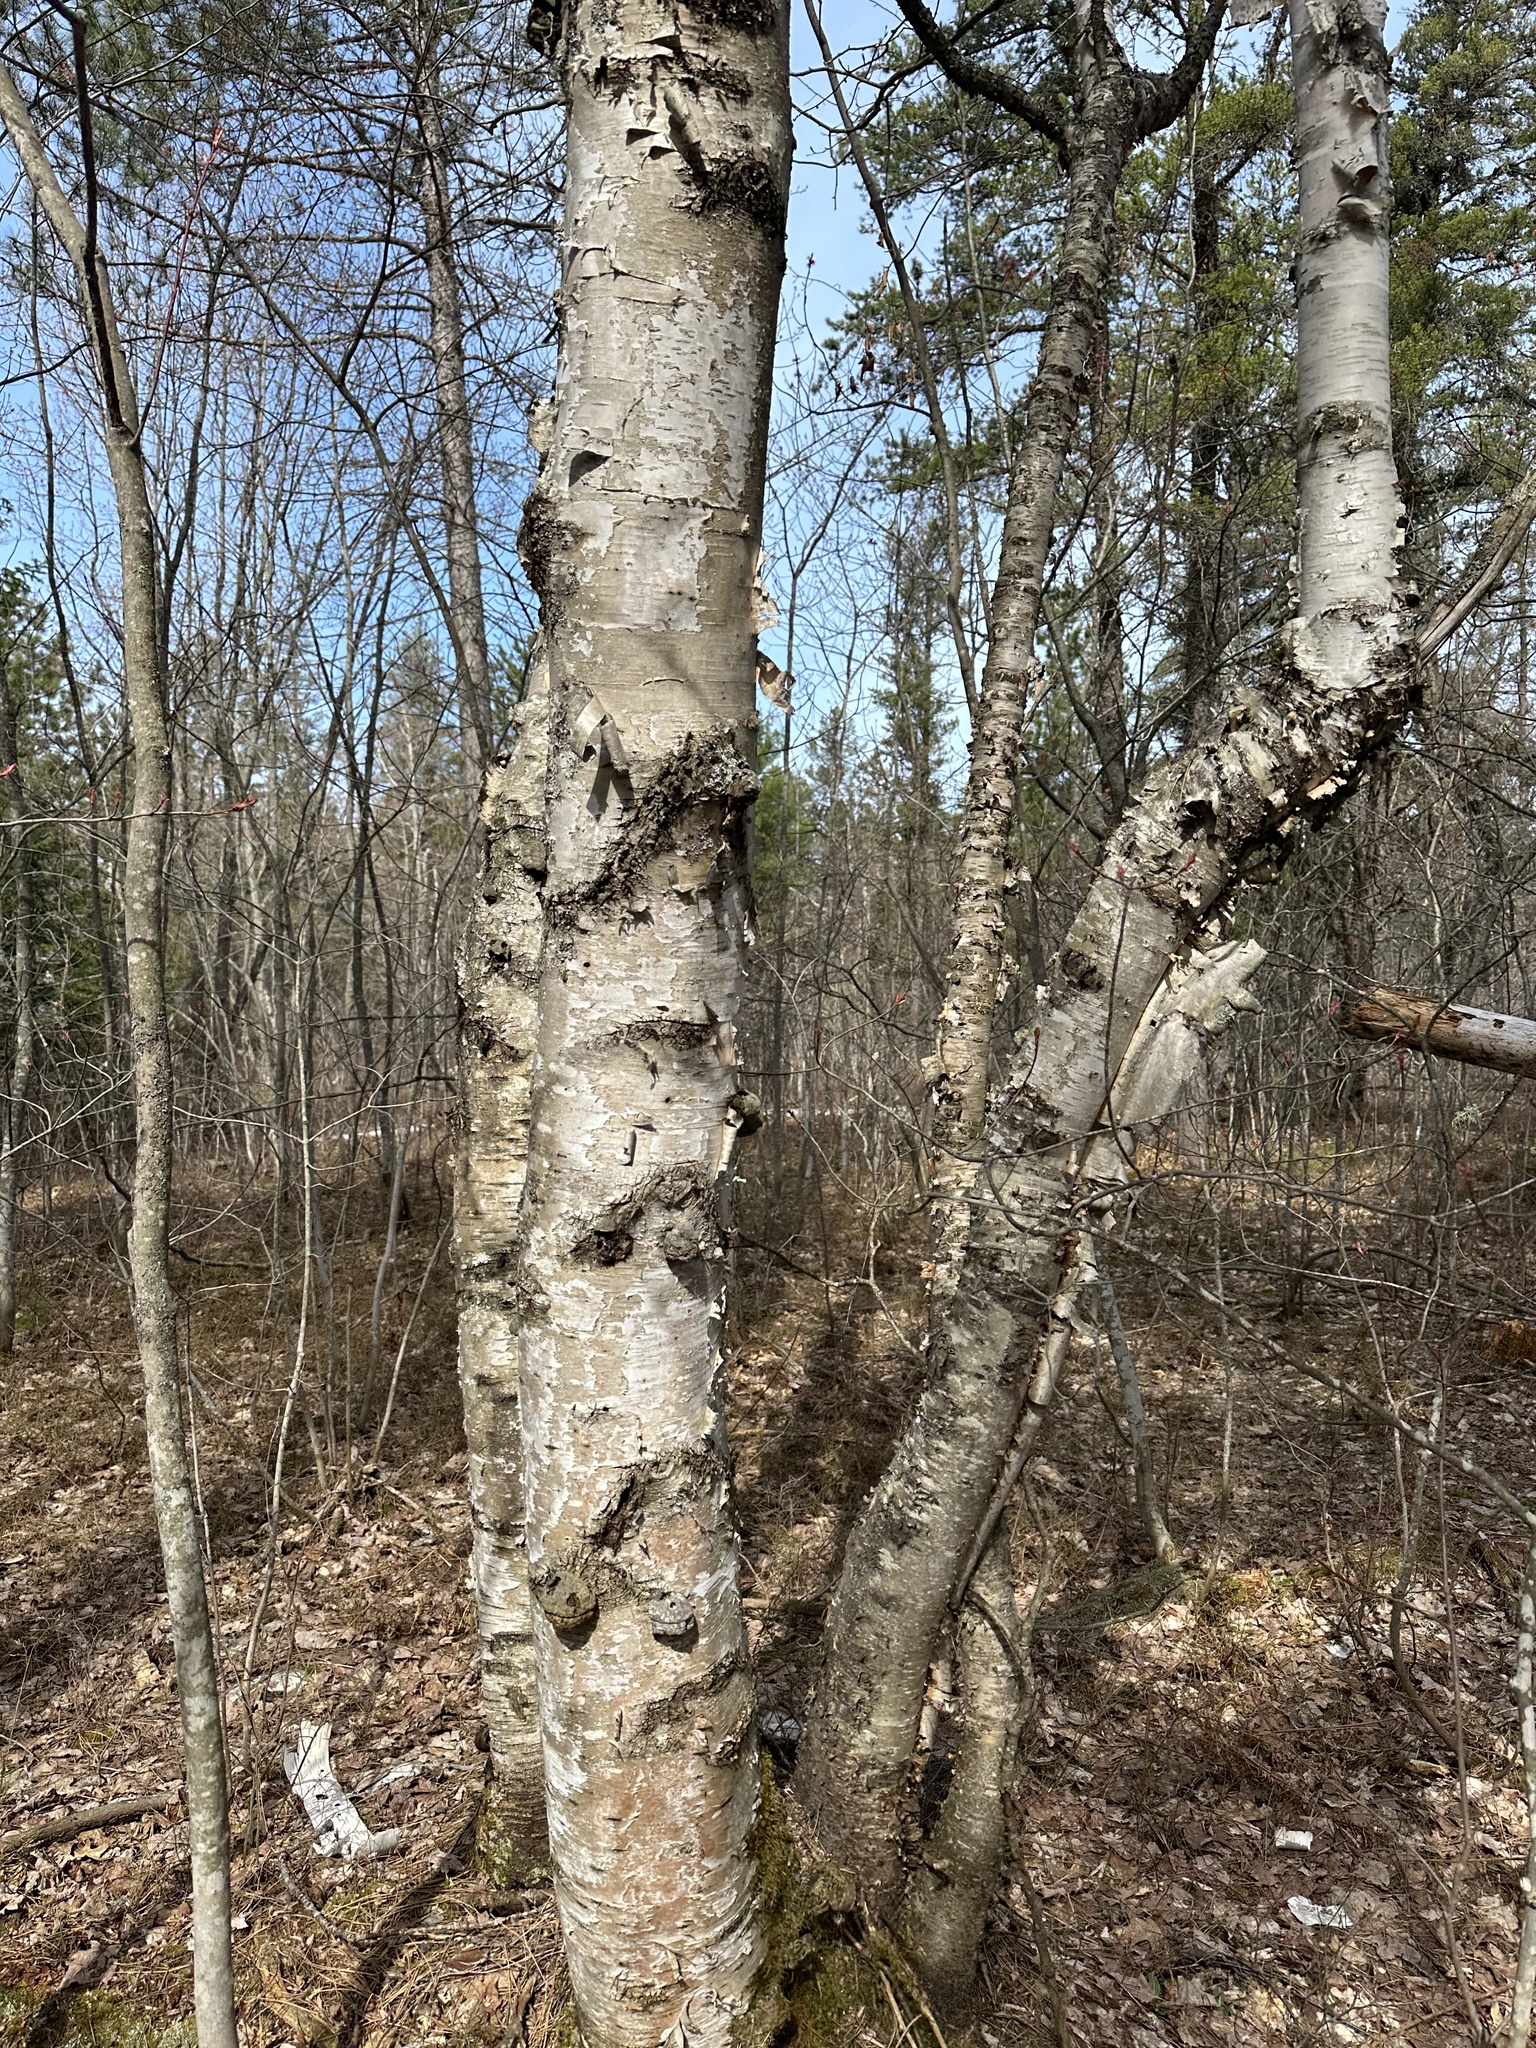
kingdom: Plantae
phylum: Tracheophyta
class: Magnoliopsida
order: Fagales
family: Betulaceae
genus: Betula
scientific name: Betula papyrifera
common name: Paper birch
